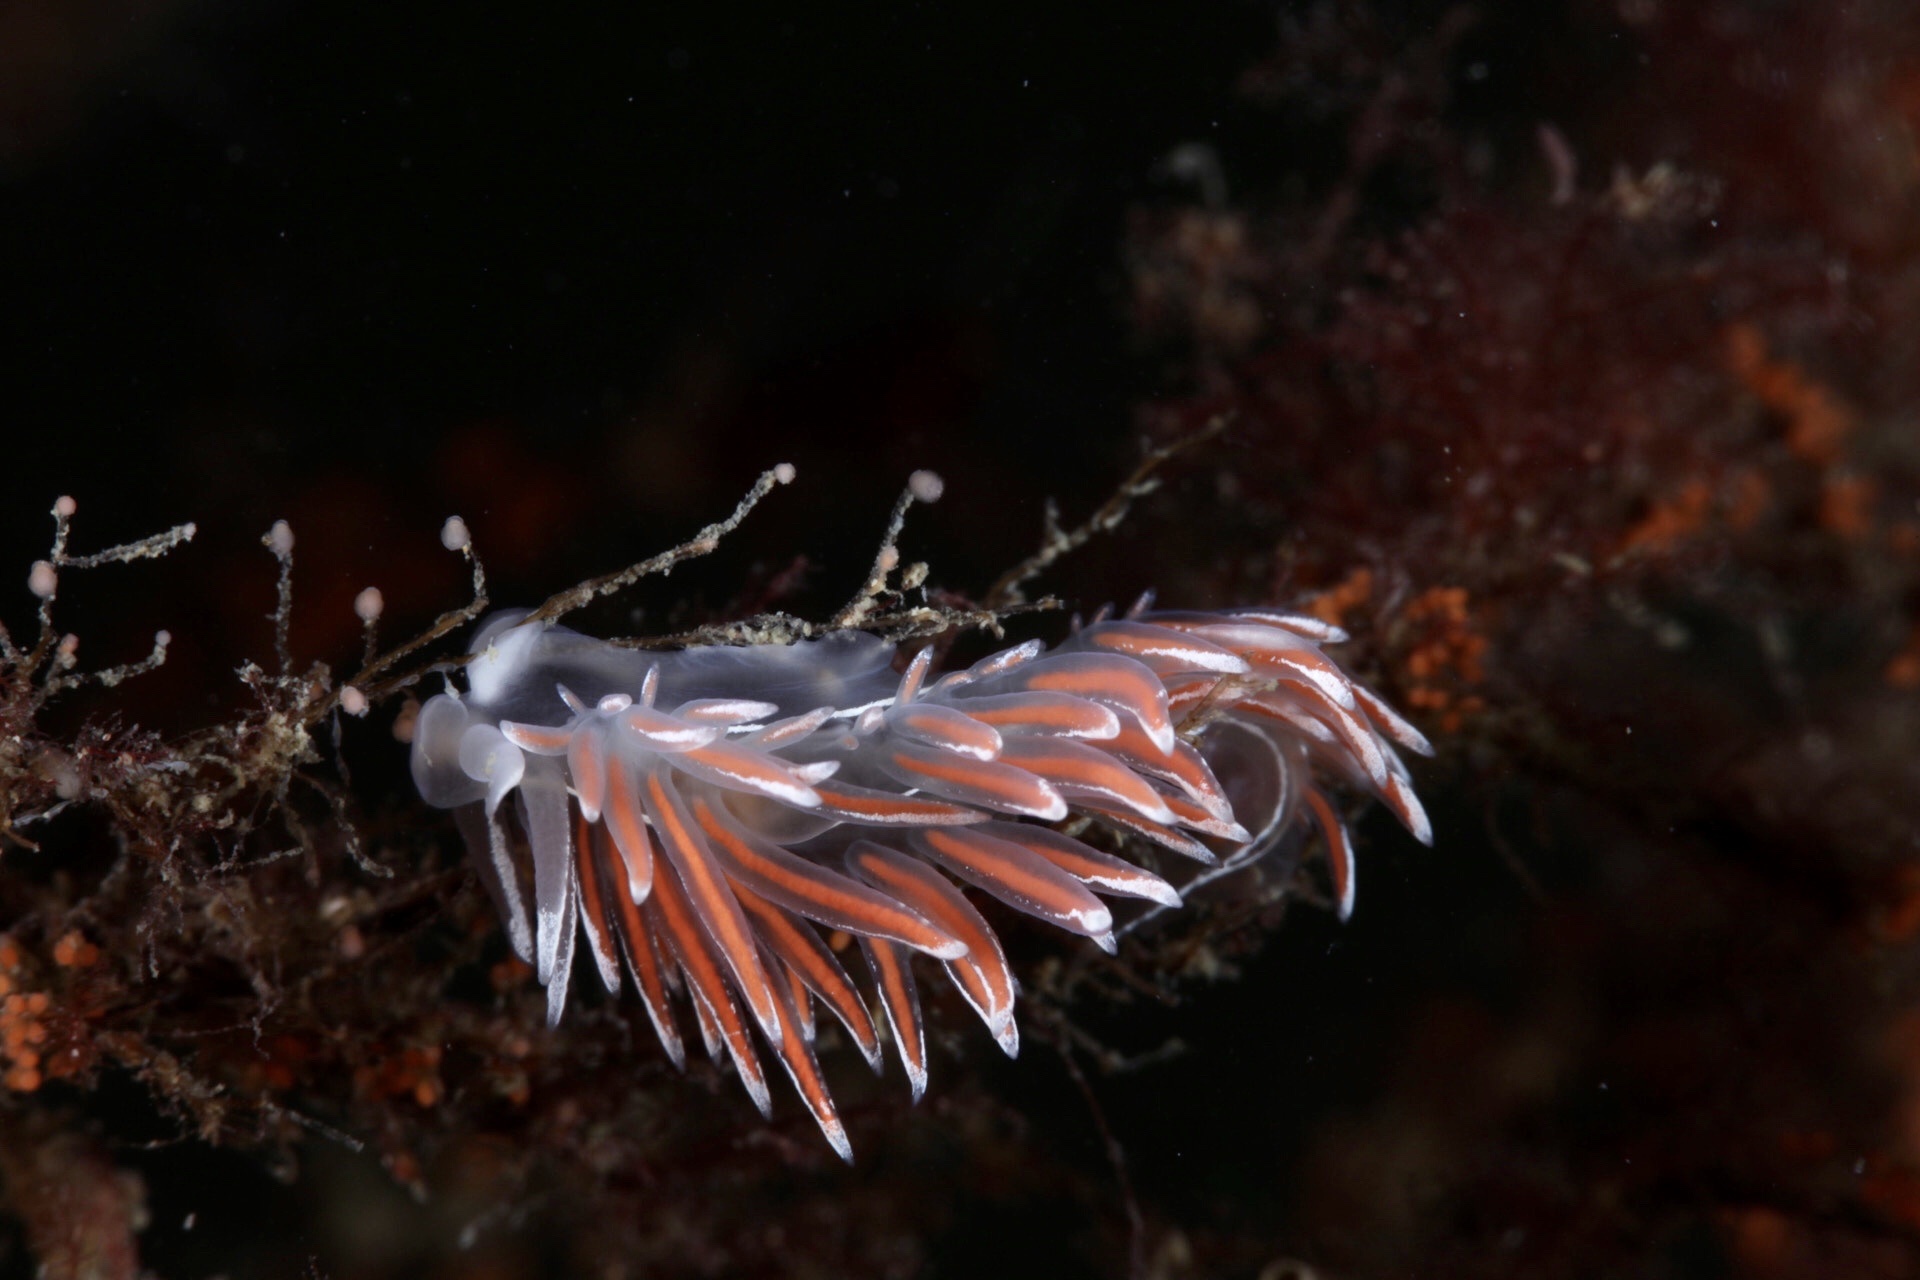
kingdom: Animalia
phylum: Mollusca
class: Gastropoda
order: Nudibranchia
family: Coryphellidae
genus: Coryphella
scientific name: Coryphella lineata
